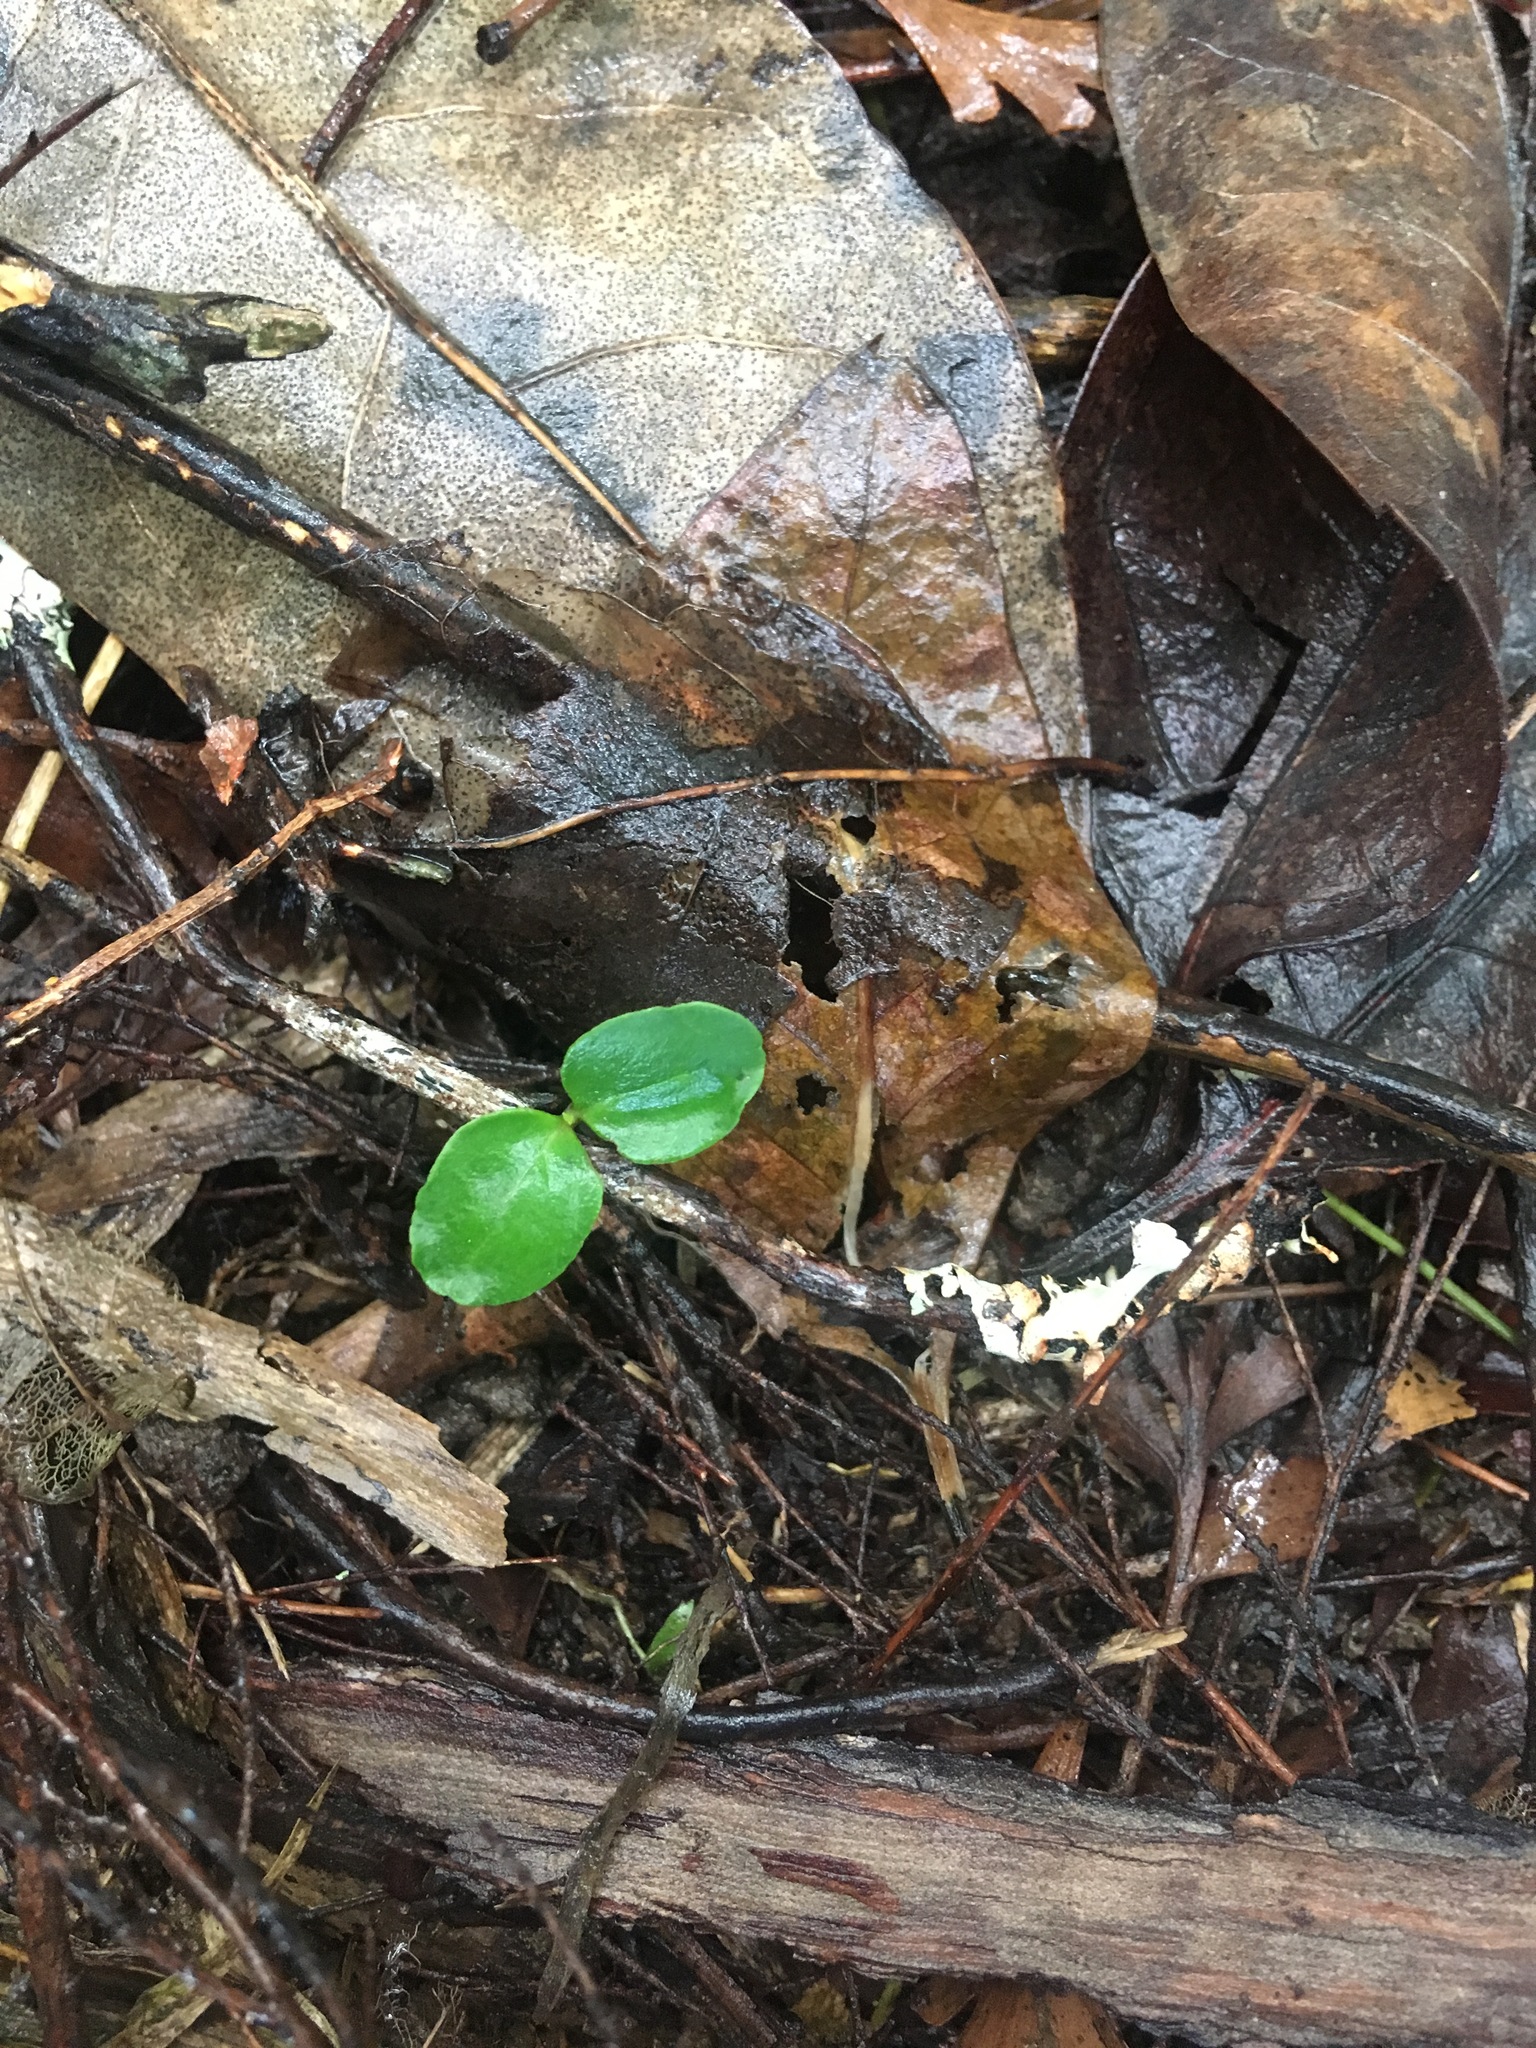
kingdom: Plantae
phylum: Tracheophyta
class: Magnoliopsida
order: Lamiales
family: Oleaceae
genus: Ligustrum
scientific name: Ligustrum sinense
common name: Chinese privet
